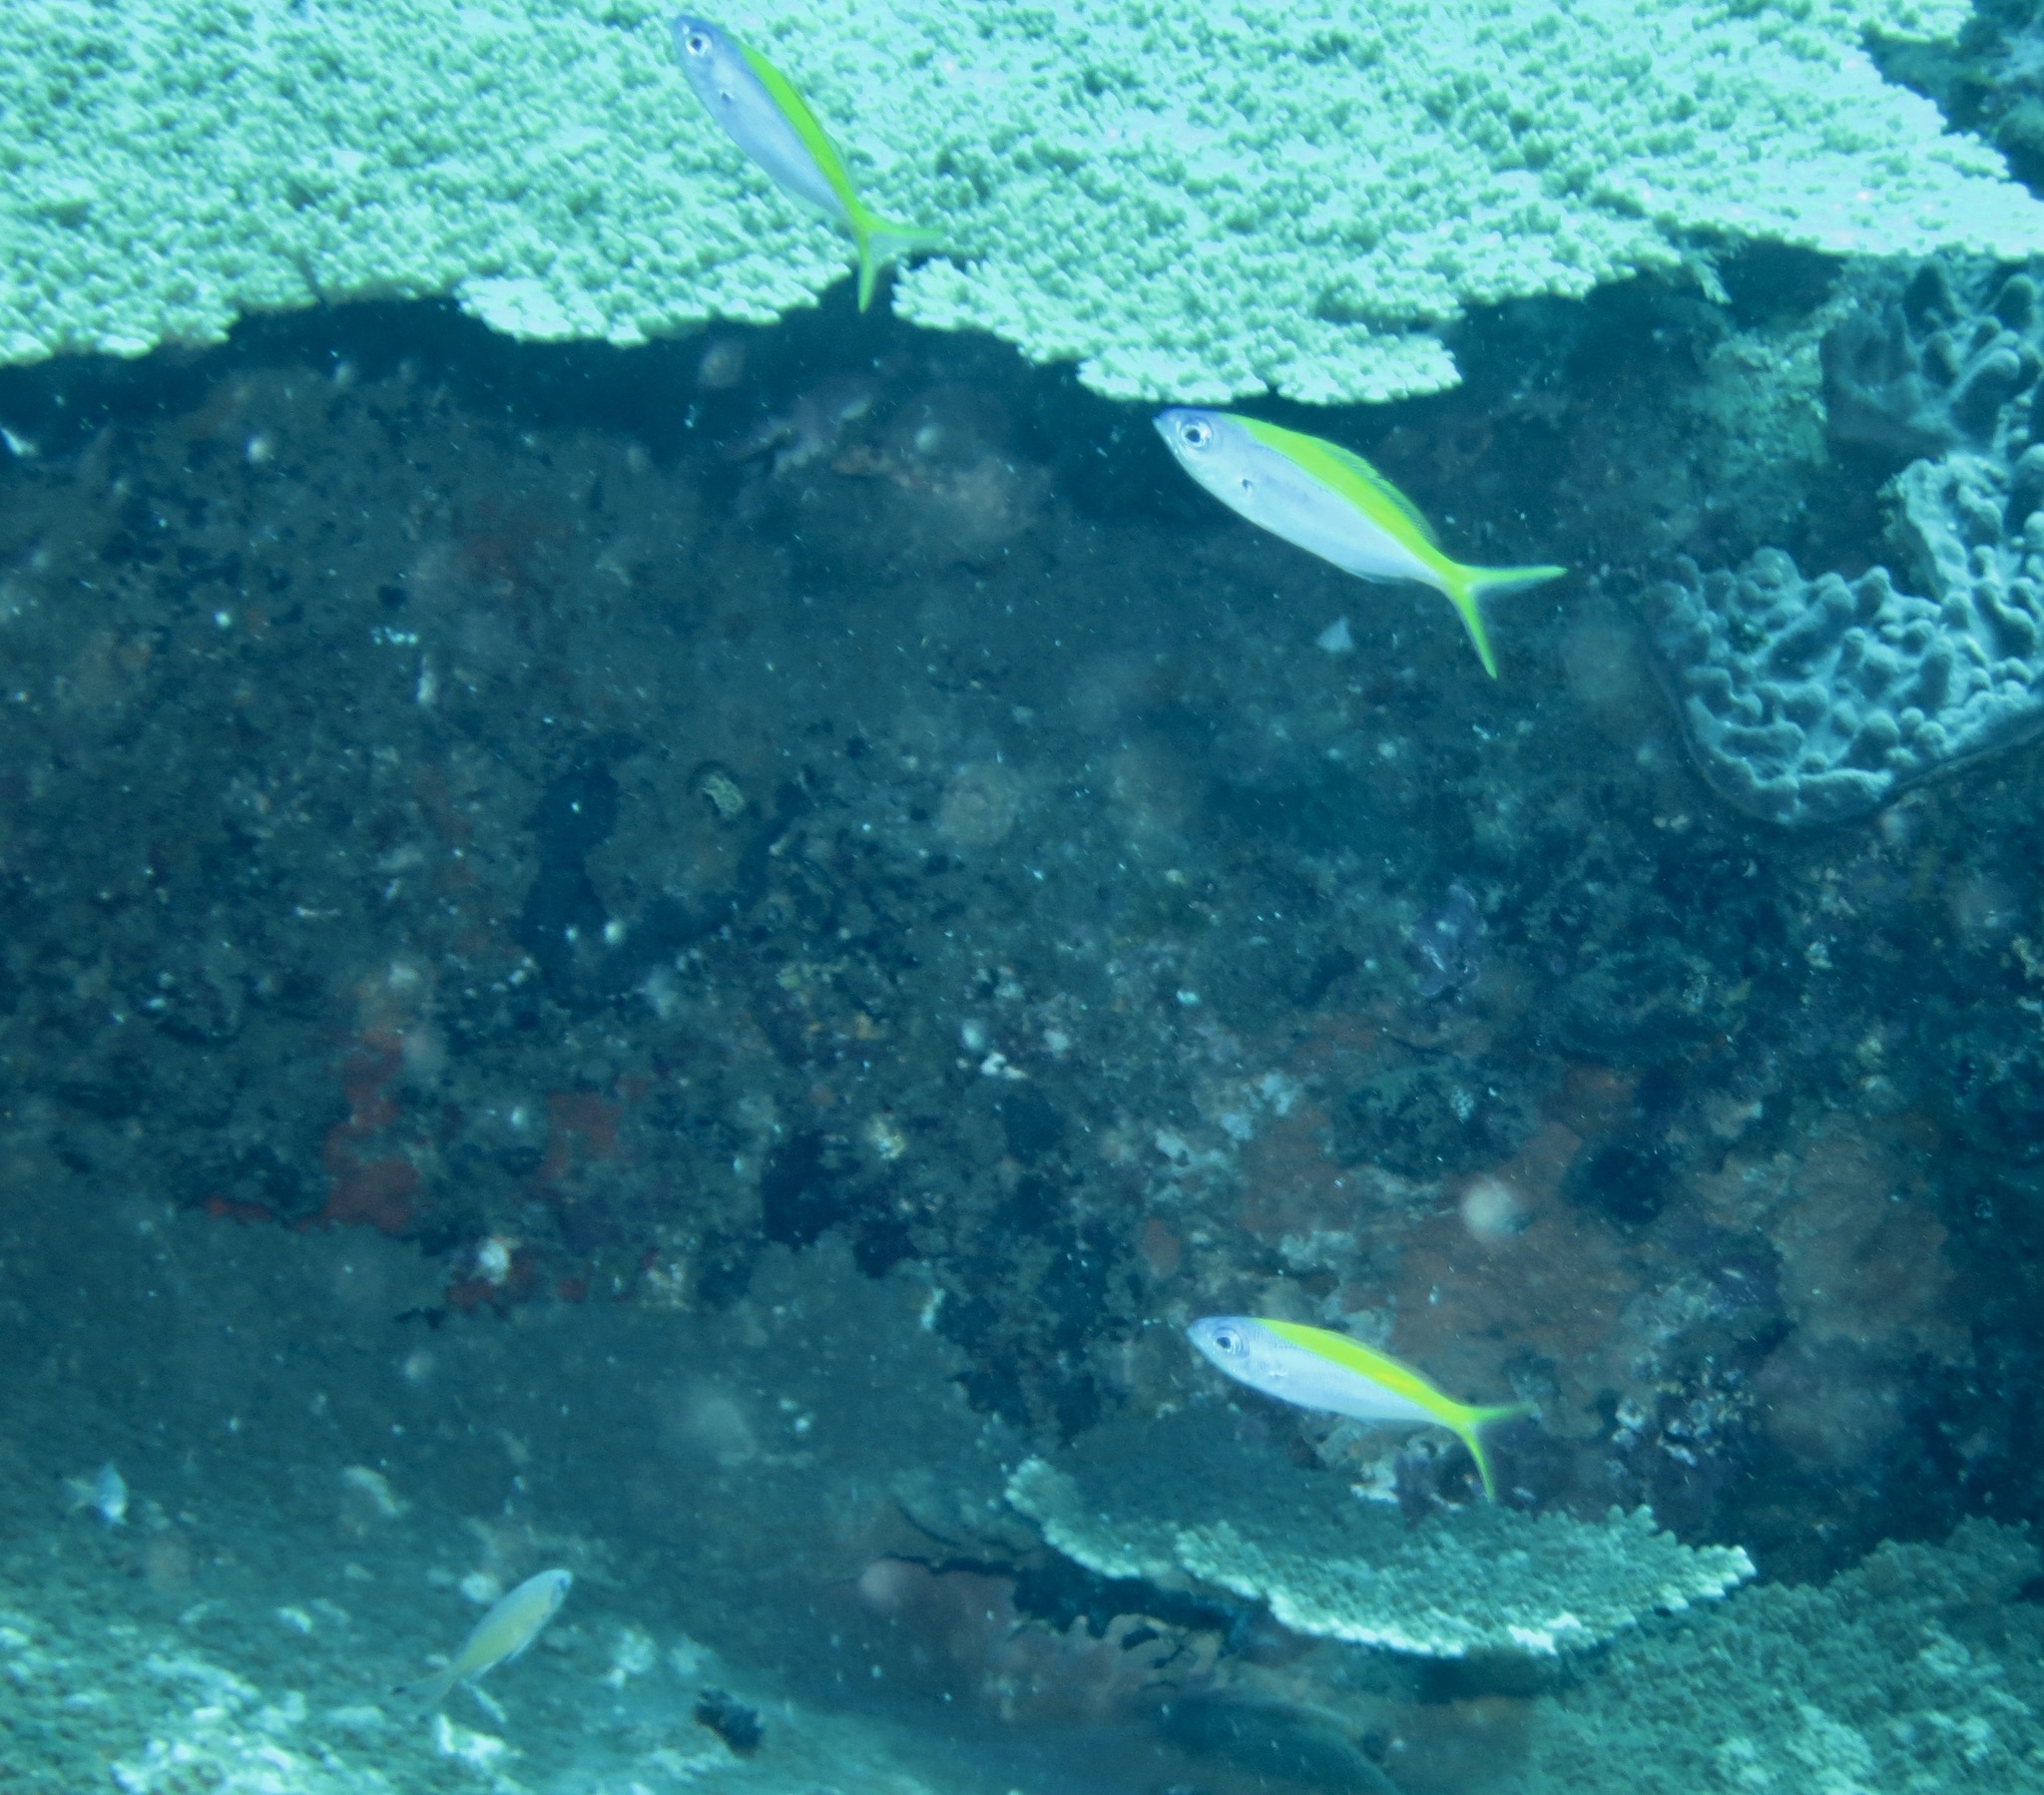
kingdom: Animalia
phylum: Chordata
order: Perciformes
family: Caesionidae
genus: Caesio
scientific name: Caesio xanthonota
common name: Yellowback fusilier
